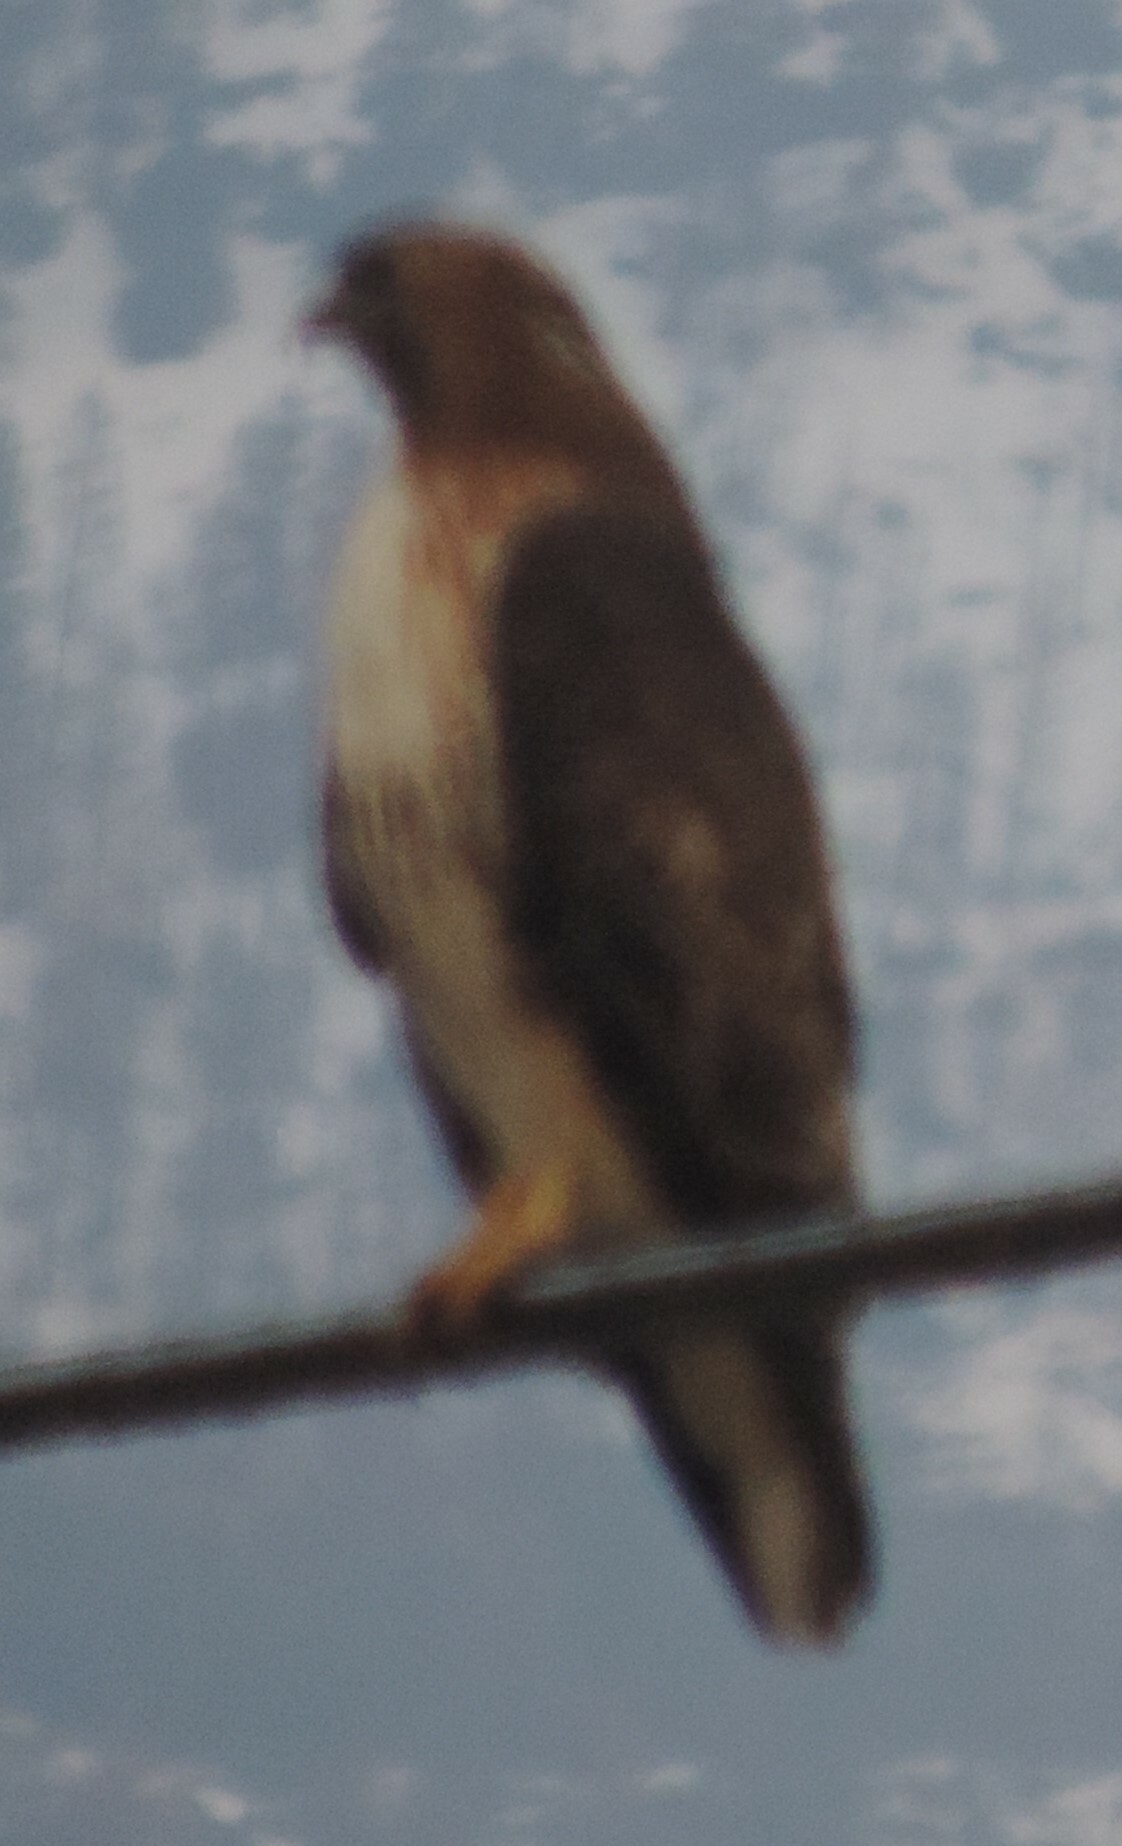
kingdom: Animalia
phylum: Chordata
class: Aves
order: Accipitriformes
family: Accipitridae
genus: Buteo
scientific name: Buteo jamaicensis
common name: Red-tailed hawk
